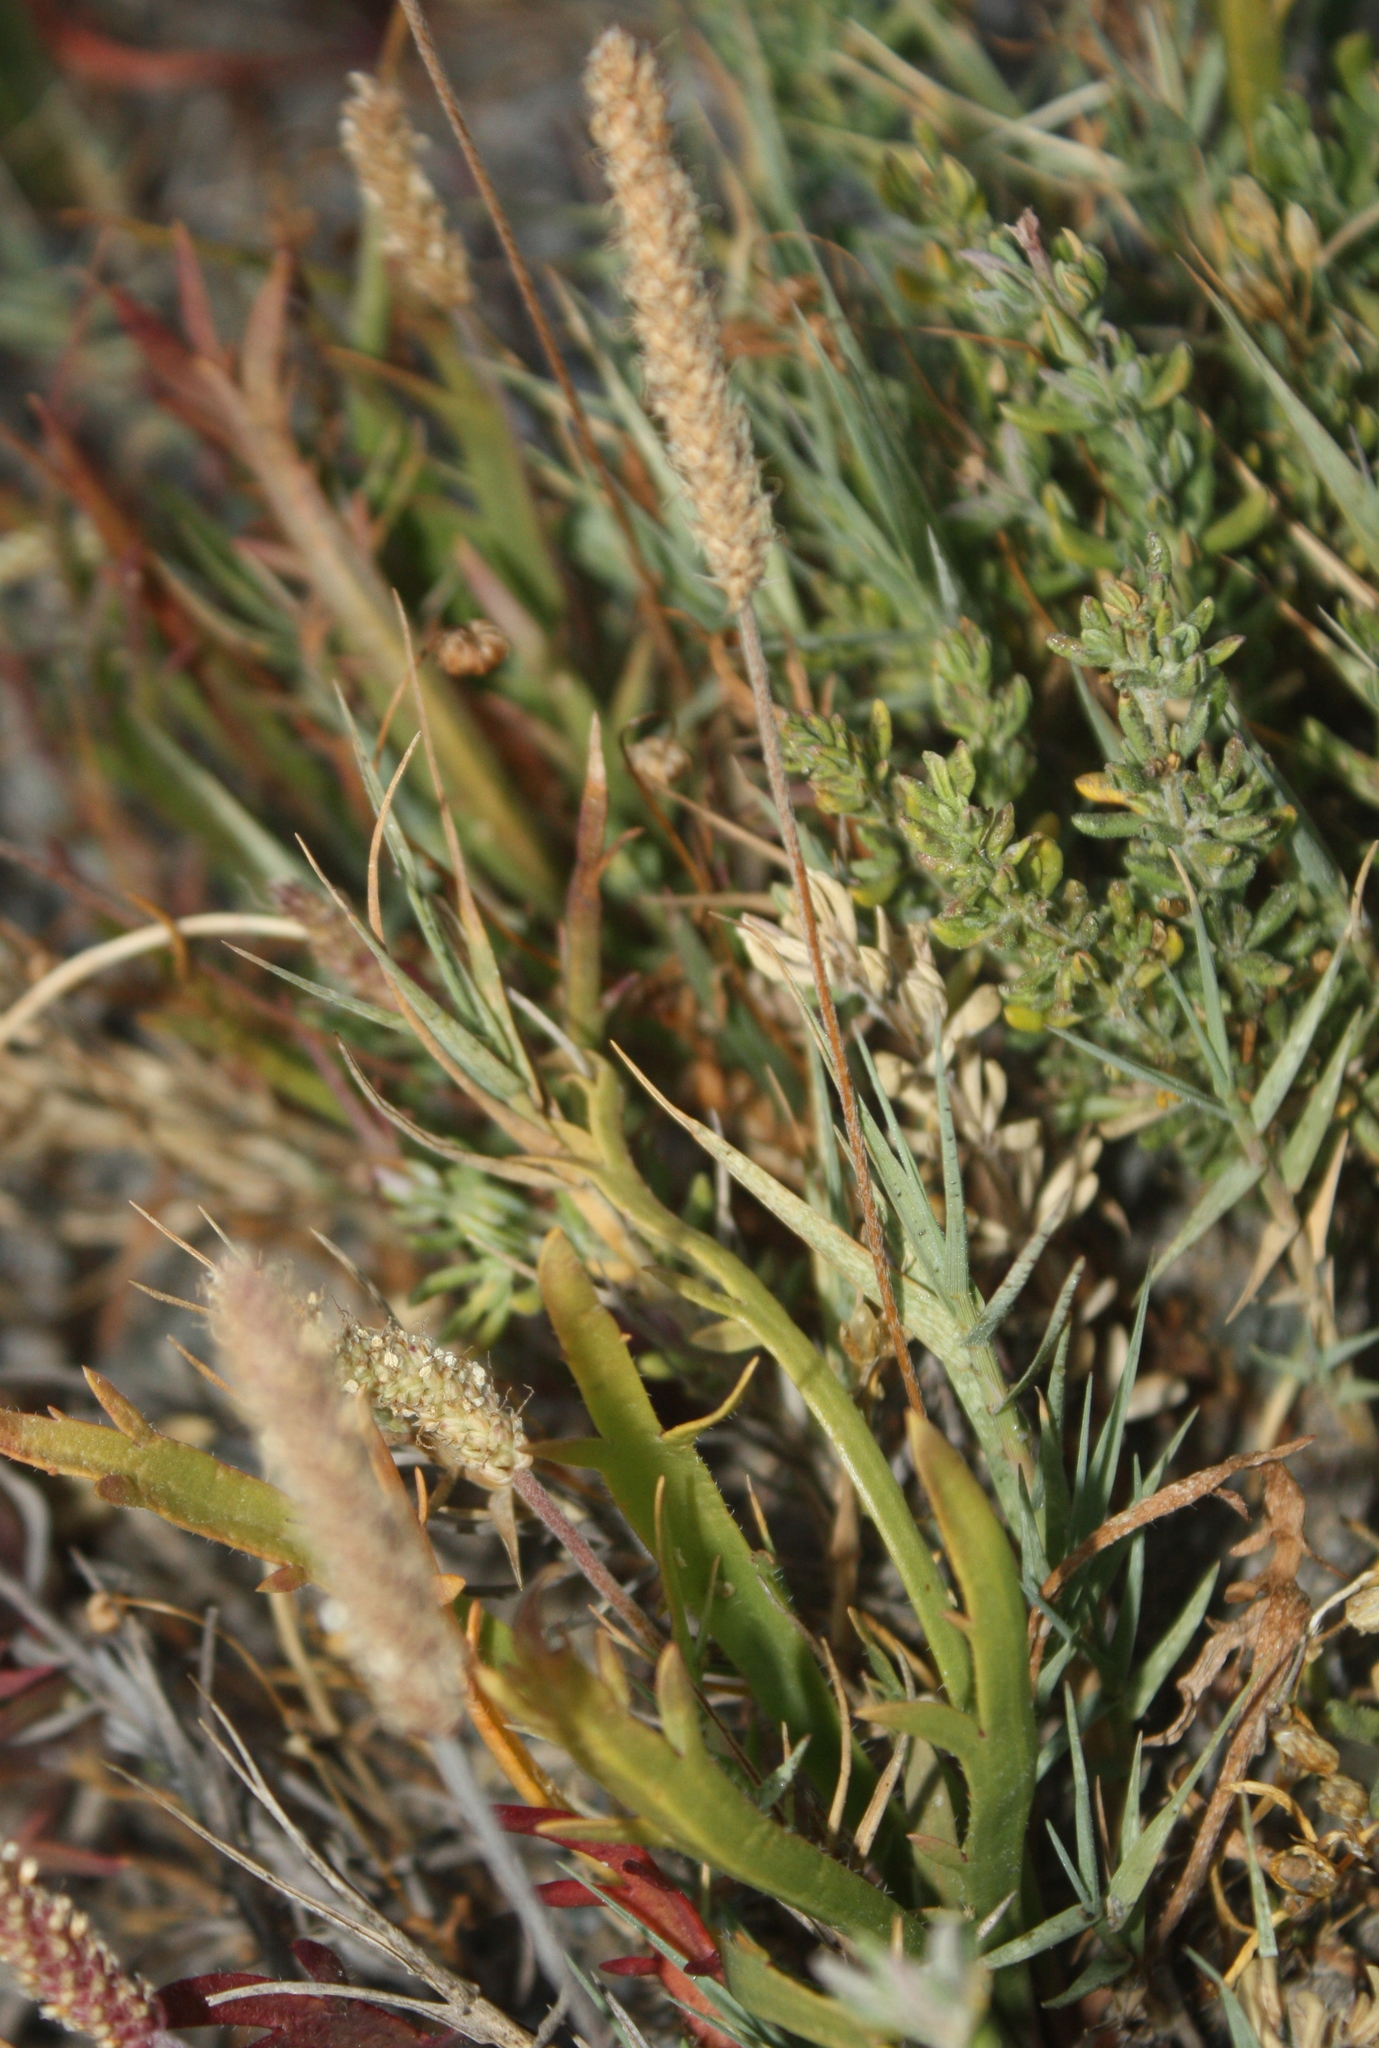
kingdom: Plantae
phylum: Tracheophyta
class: Magnoliopsida
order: Lamiales
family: Plantaginaceae
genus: Plantago
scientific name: Plantago coronopus
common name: Buck's-horn plantain
